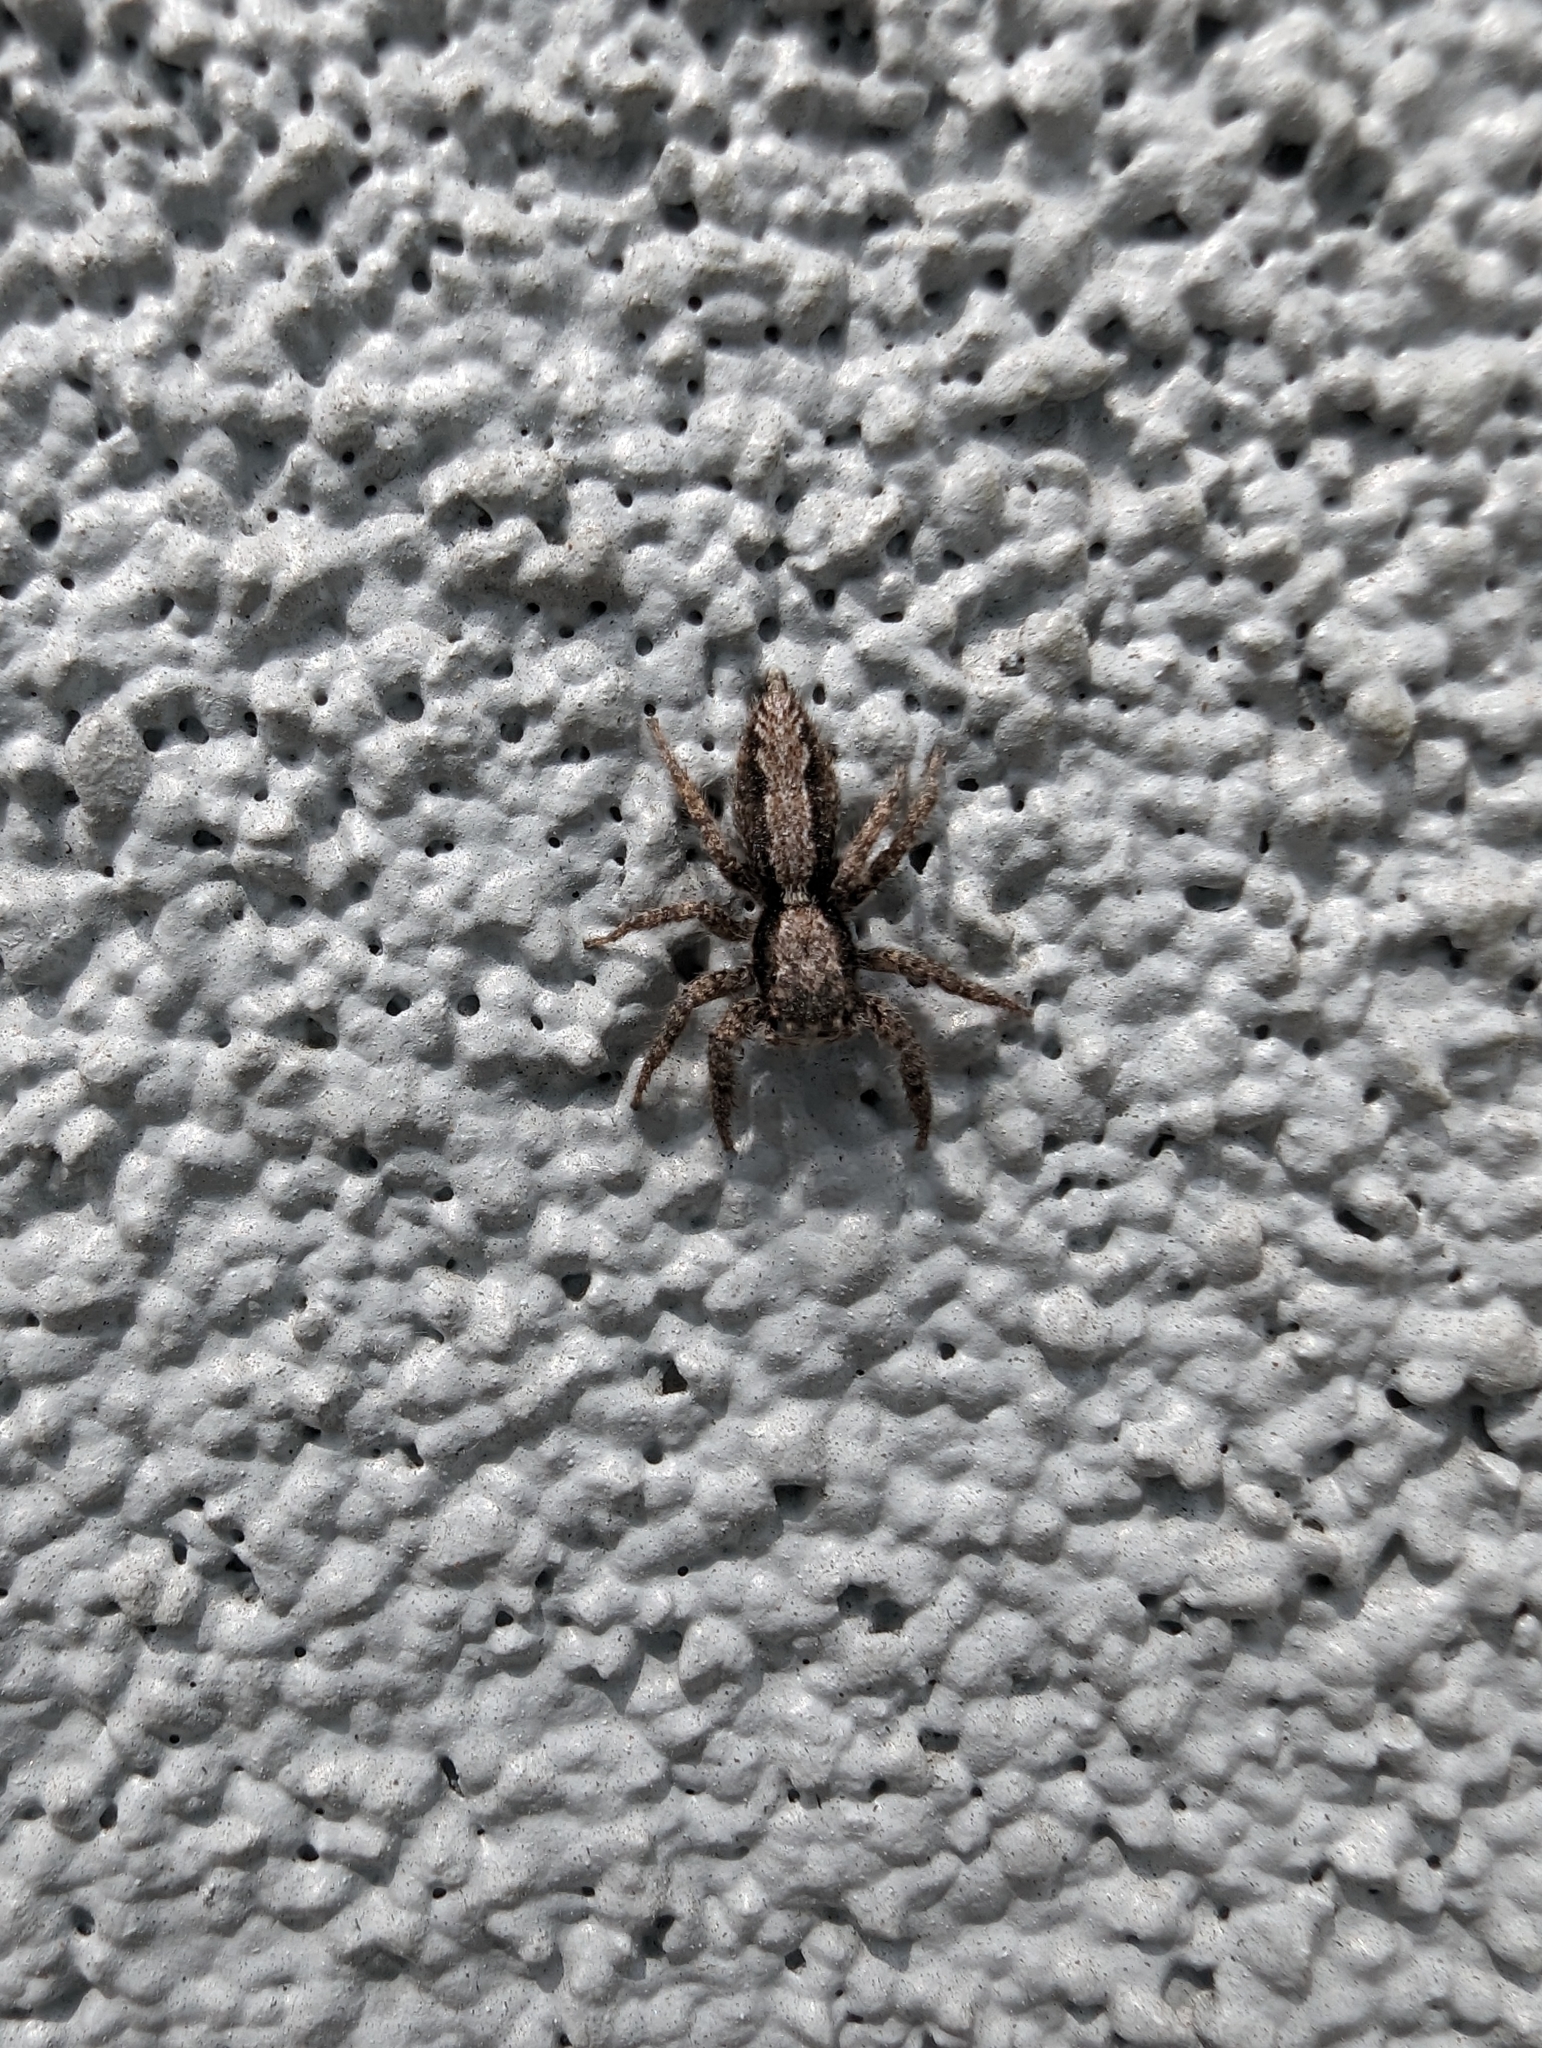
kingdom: Animalia
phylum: Arthropoda
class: Arachnida
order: Araneae
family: Salticidae
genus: Platycryptus
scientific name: Platycryptus californicus
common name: Jumping spiders
